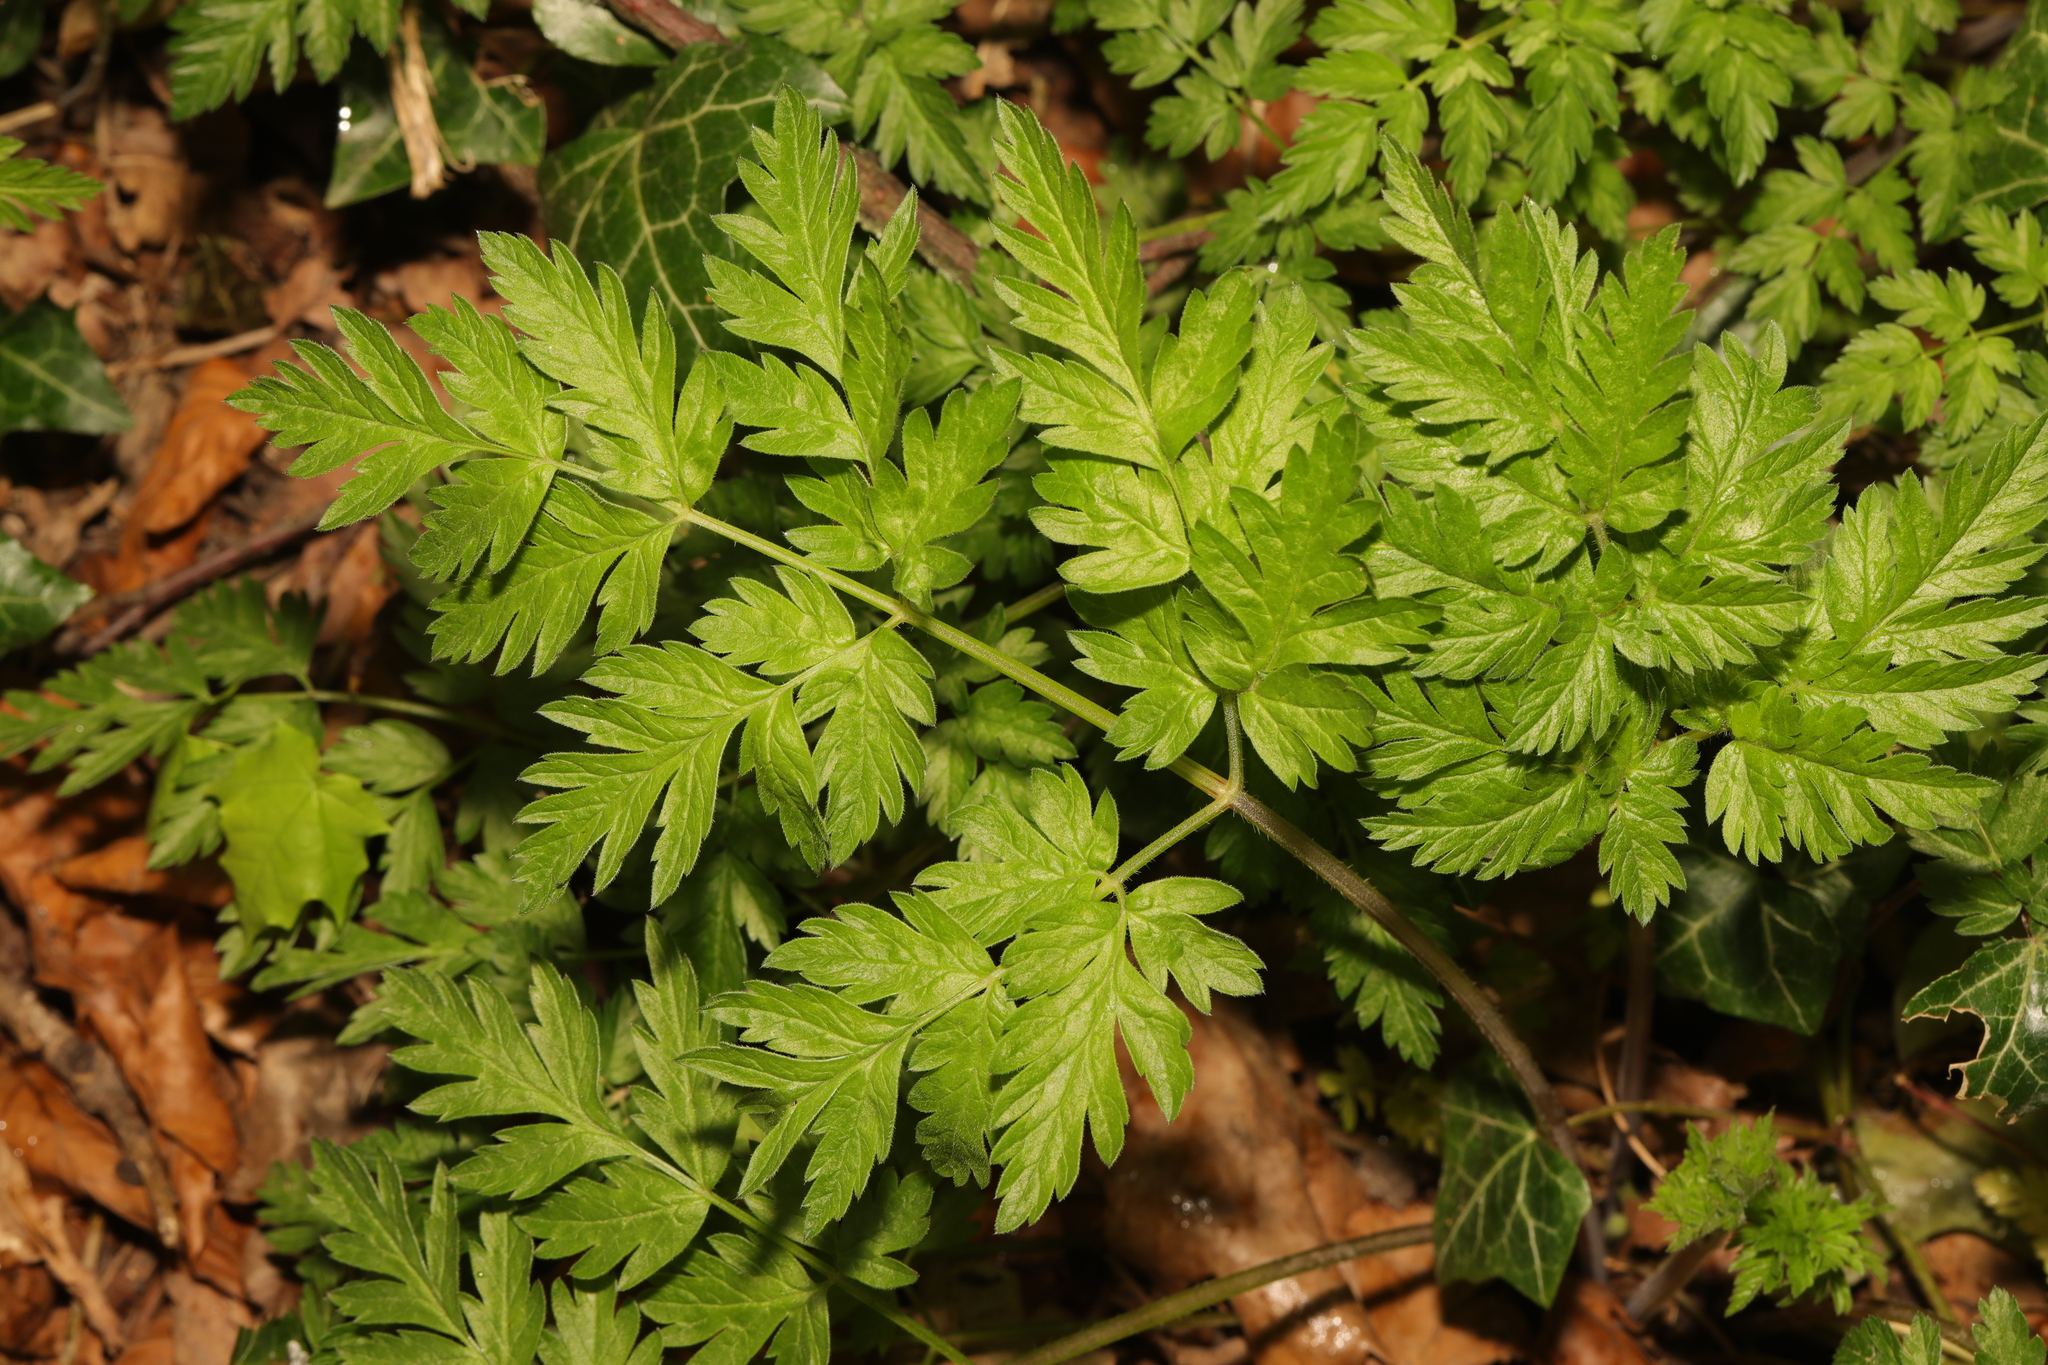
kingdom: Plantae
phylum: Tracheophyta
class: Magnoliopsida
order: Apiales
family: Apiaceae
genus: Anthriscus
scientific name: Anthriscus sylvestris
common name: Cow parsley
